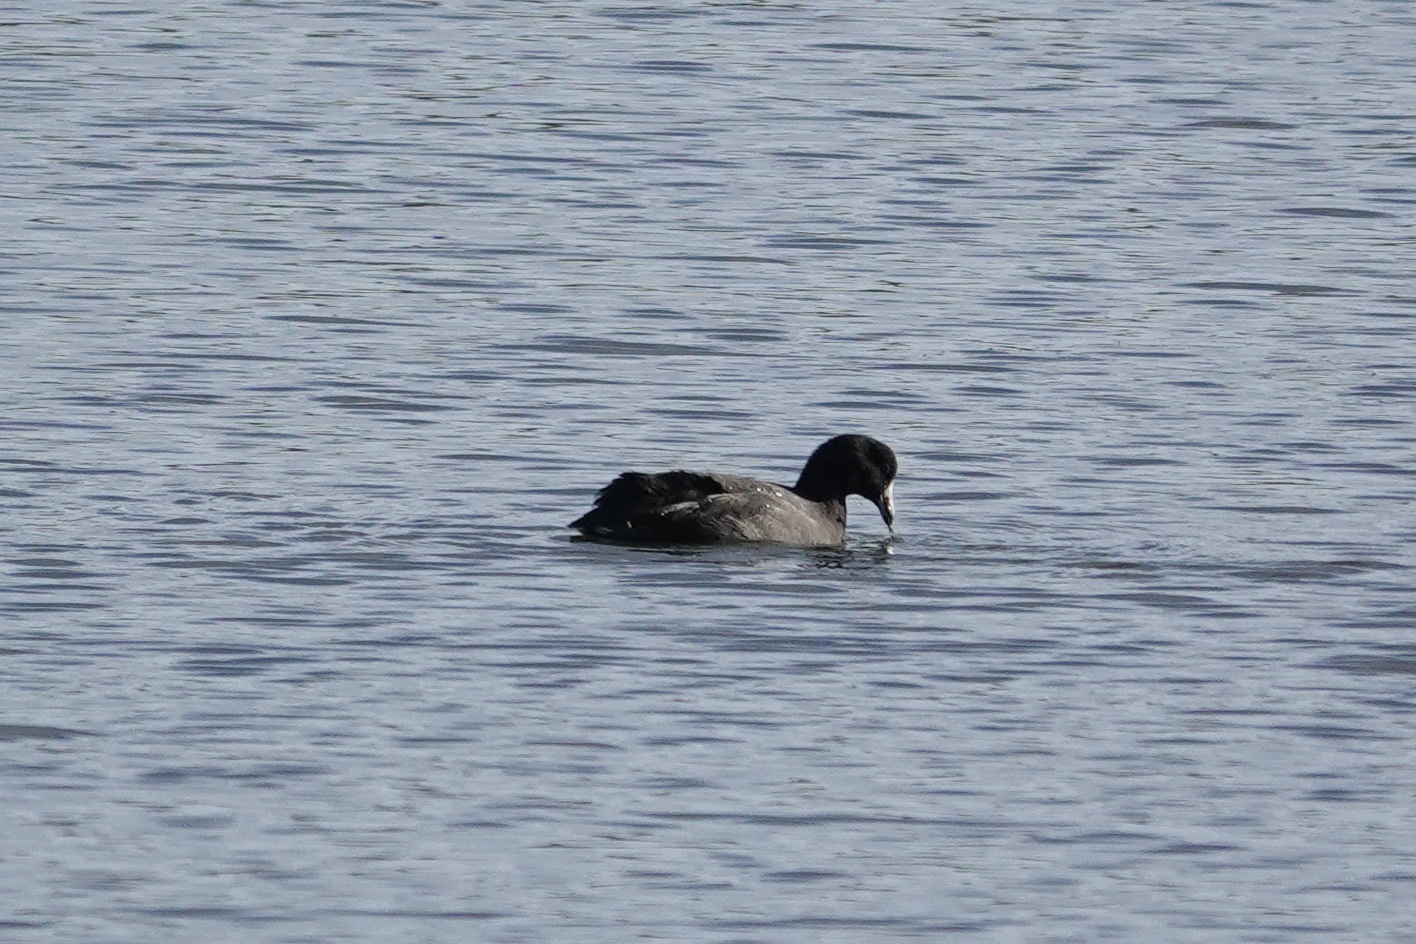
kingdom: Animalia
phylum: Chordata
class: Aves
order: Gruiformes
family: Rallidae
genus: Fulica
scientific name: Fulica americana
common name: American coot
